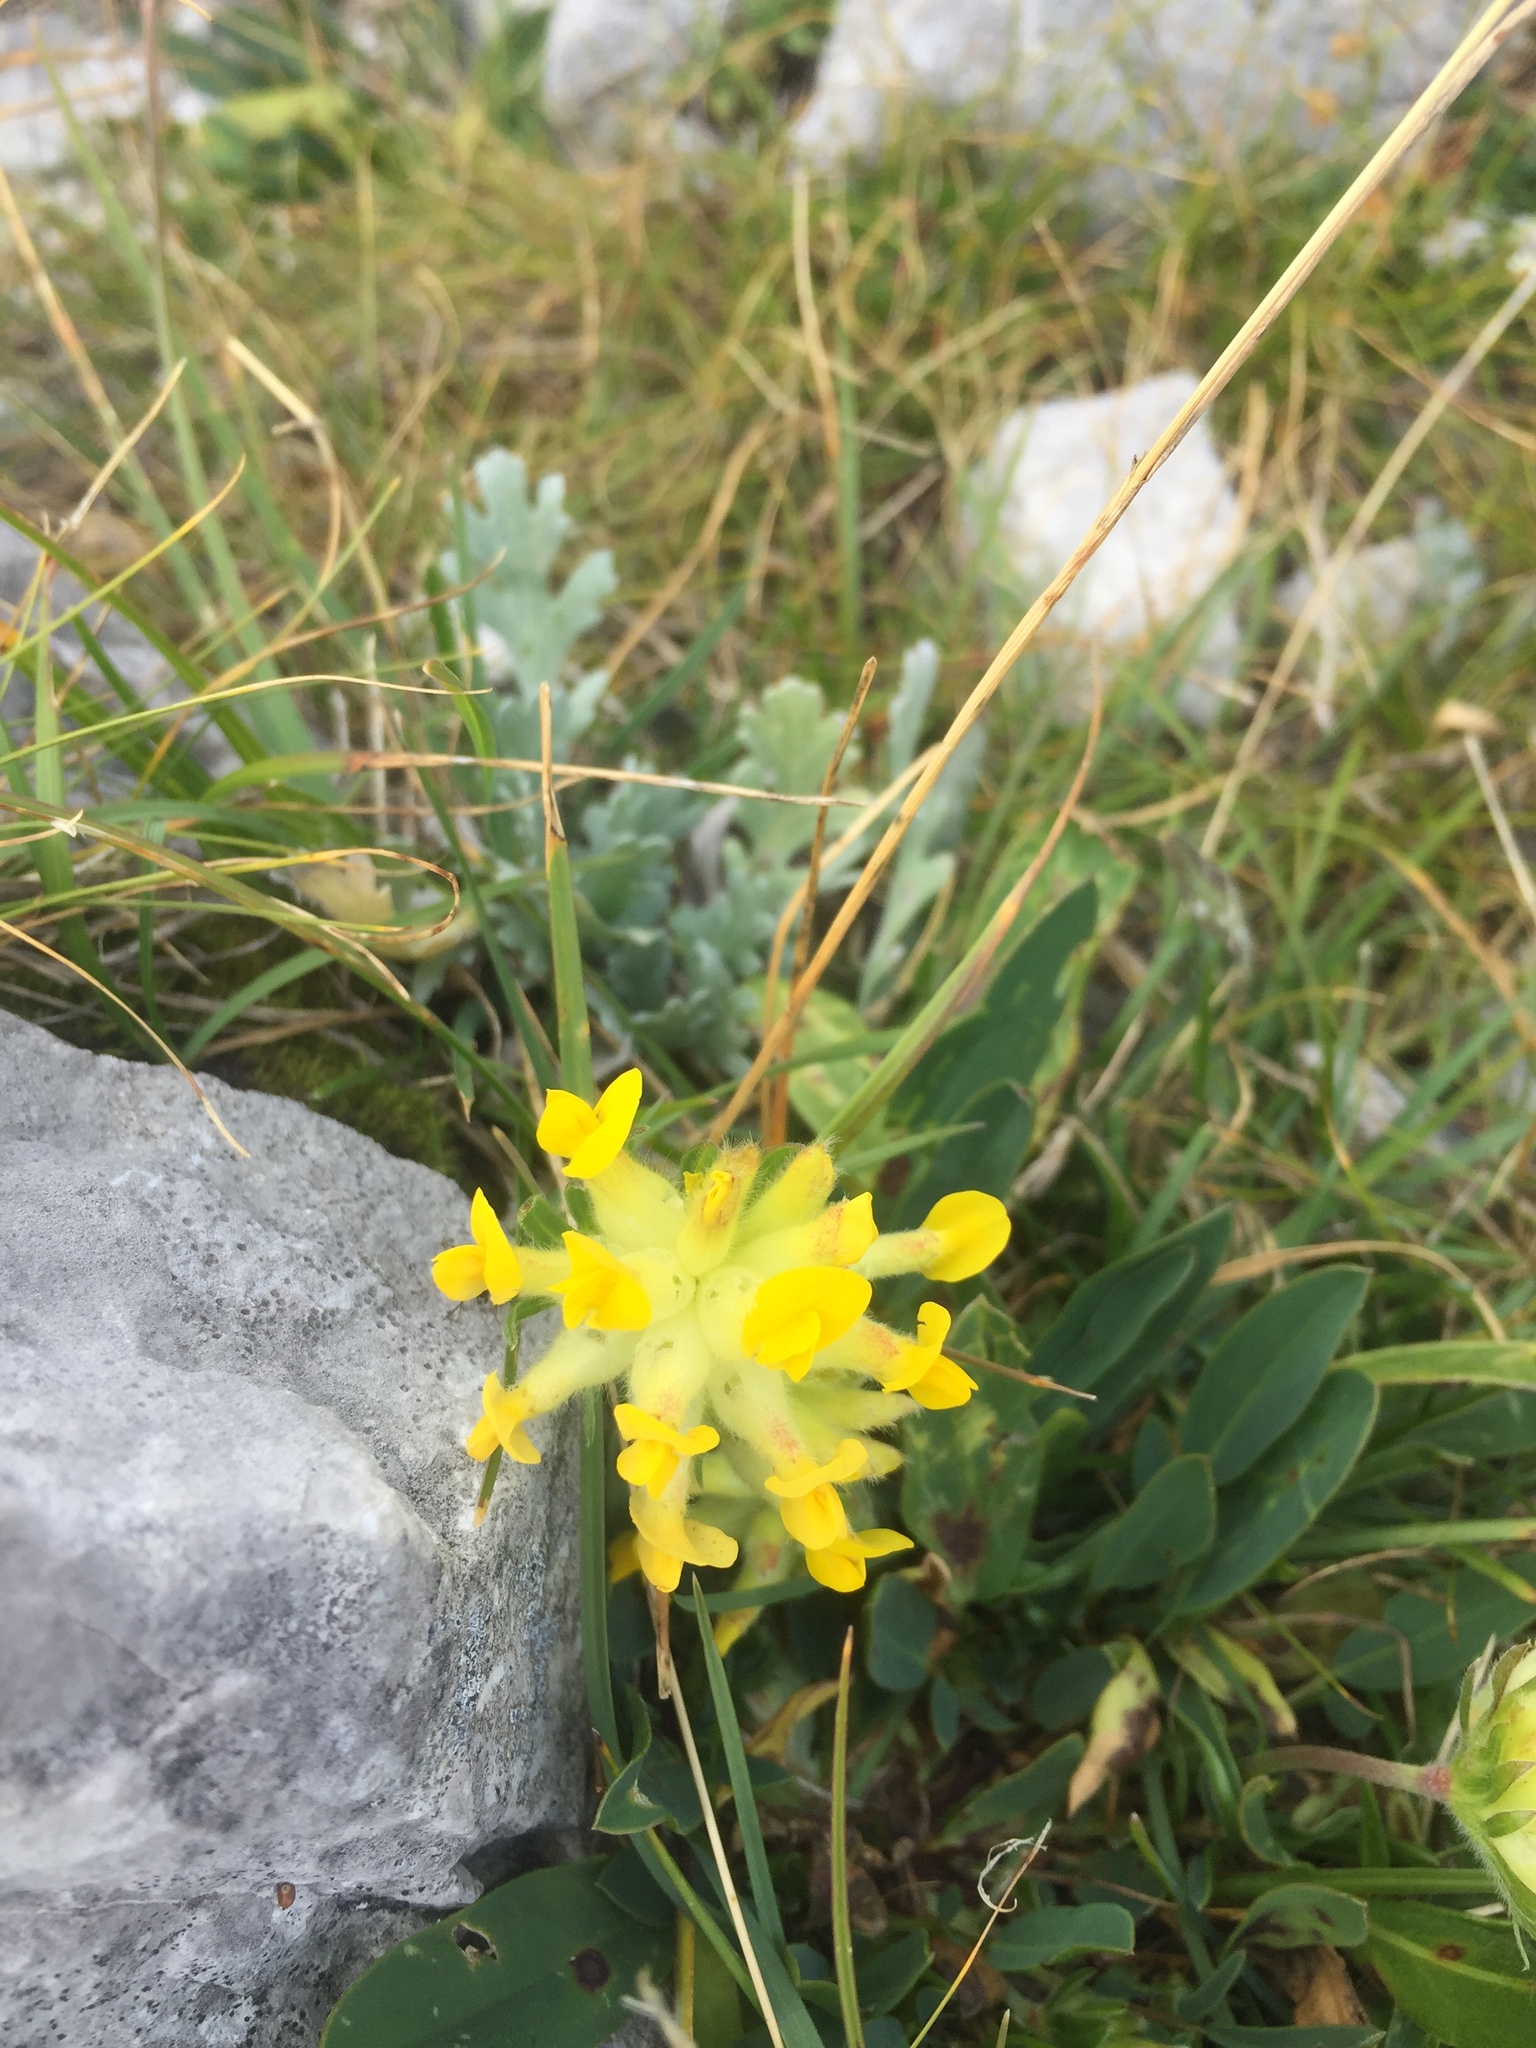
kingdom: Plantae
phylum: Tracheophyta
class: Magnoliopsida
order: Fabales
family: Fabaceae
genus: Anthyllis
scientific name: Anthyllis vulneraria
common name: Kidney vetch
